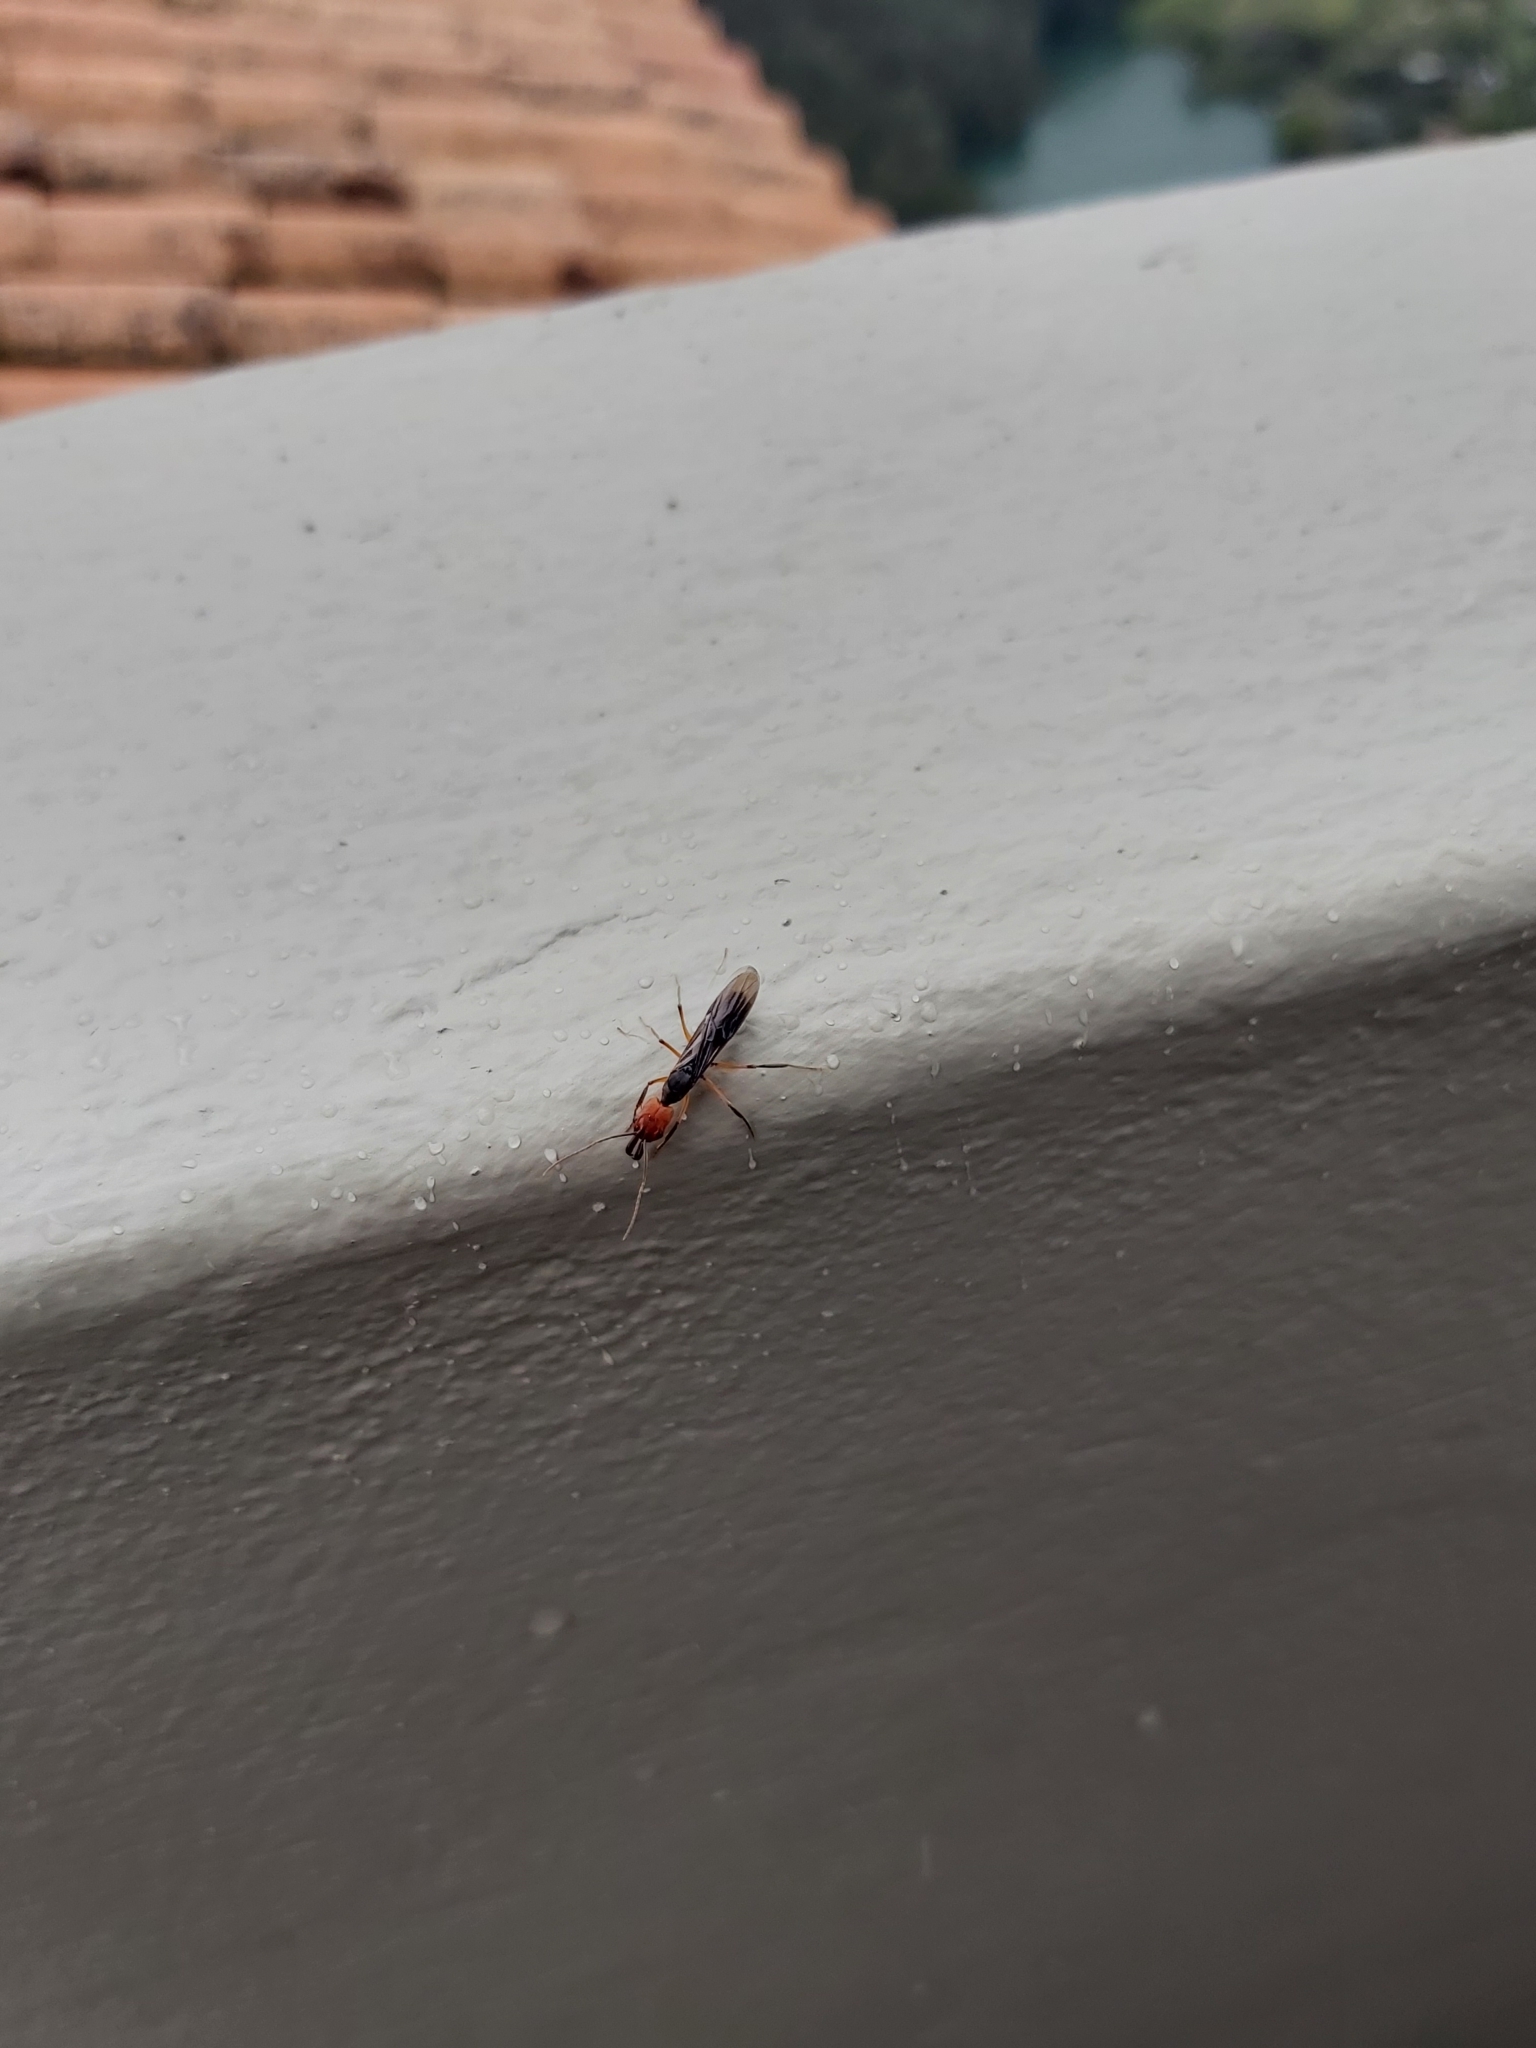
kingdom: Animalia
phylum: Arthropoda
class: Insecta
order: Hymenoptera
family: Formicidae
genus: Odontomachus
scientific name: Odontomachus erythrocephalus
